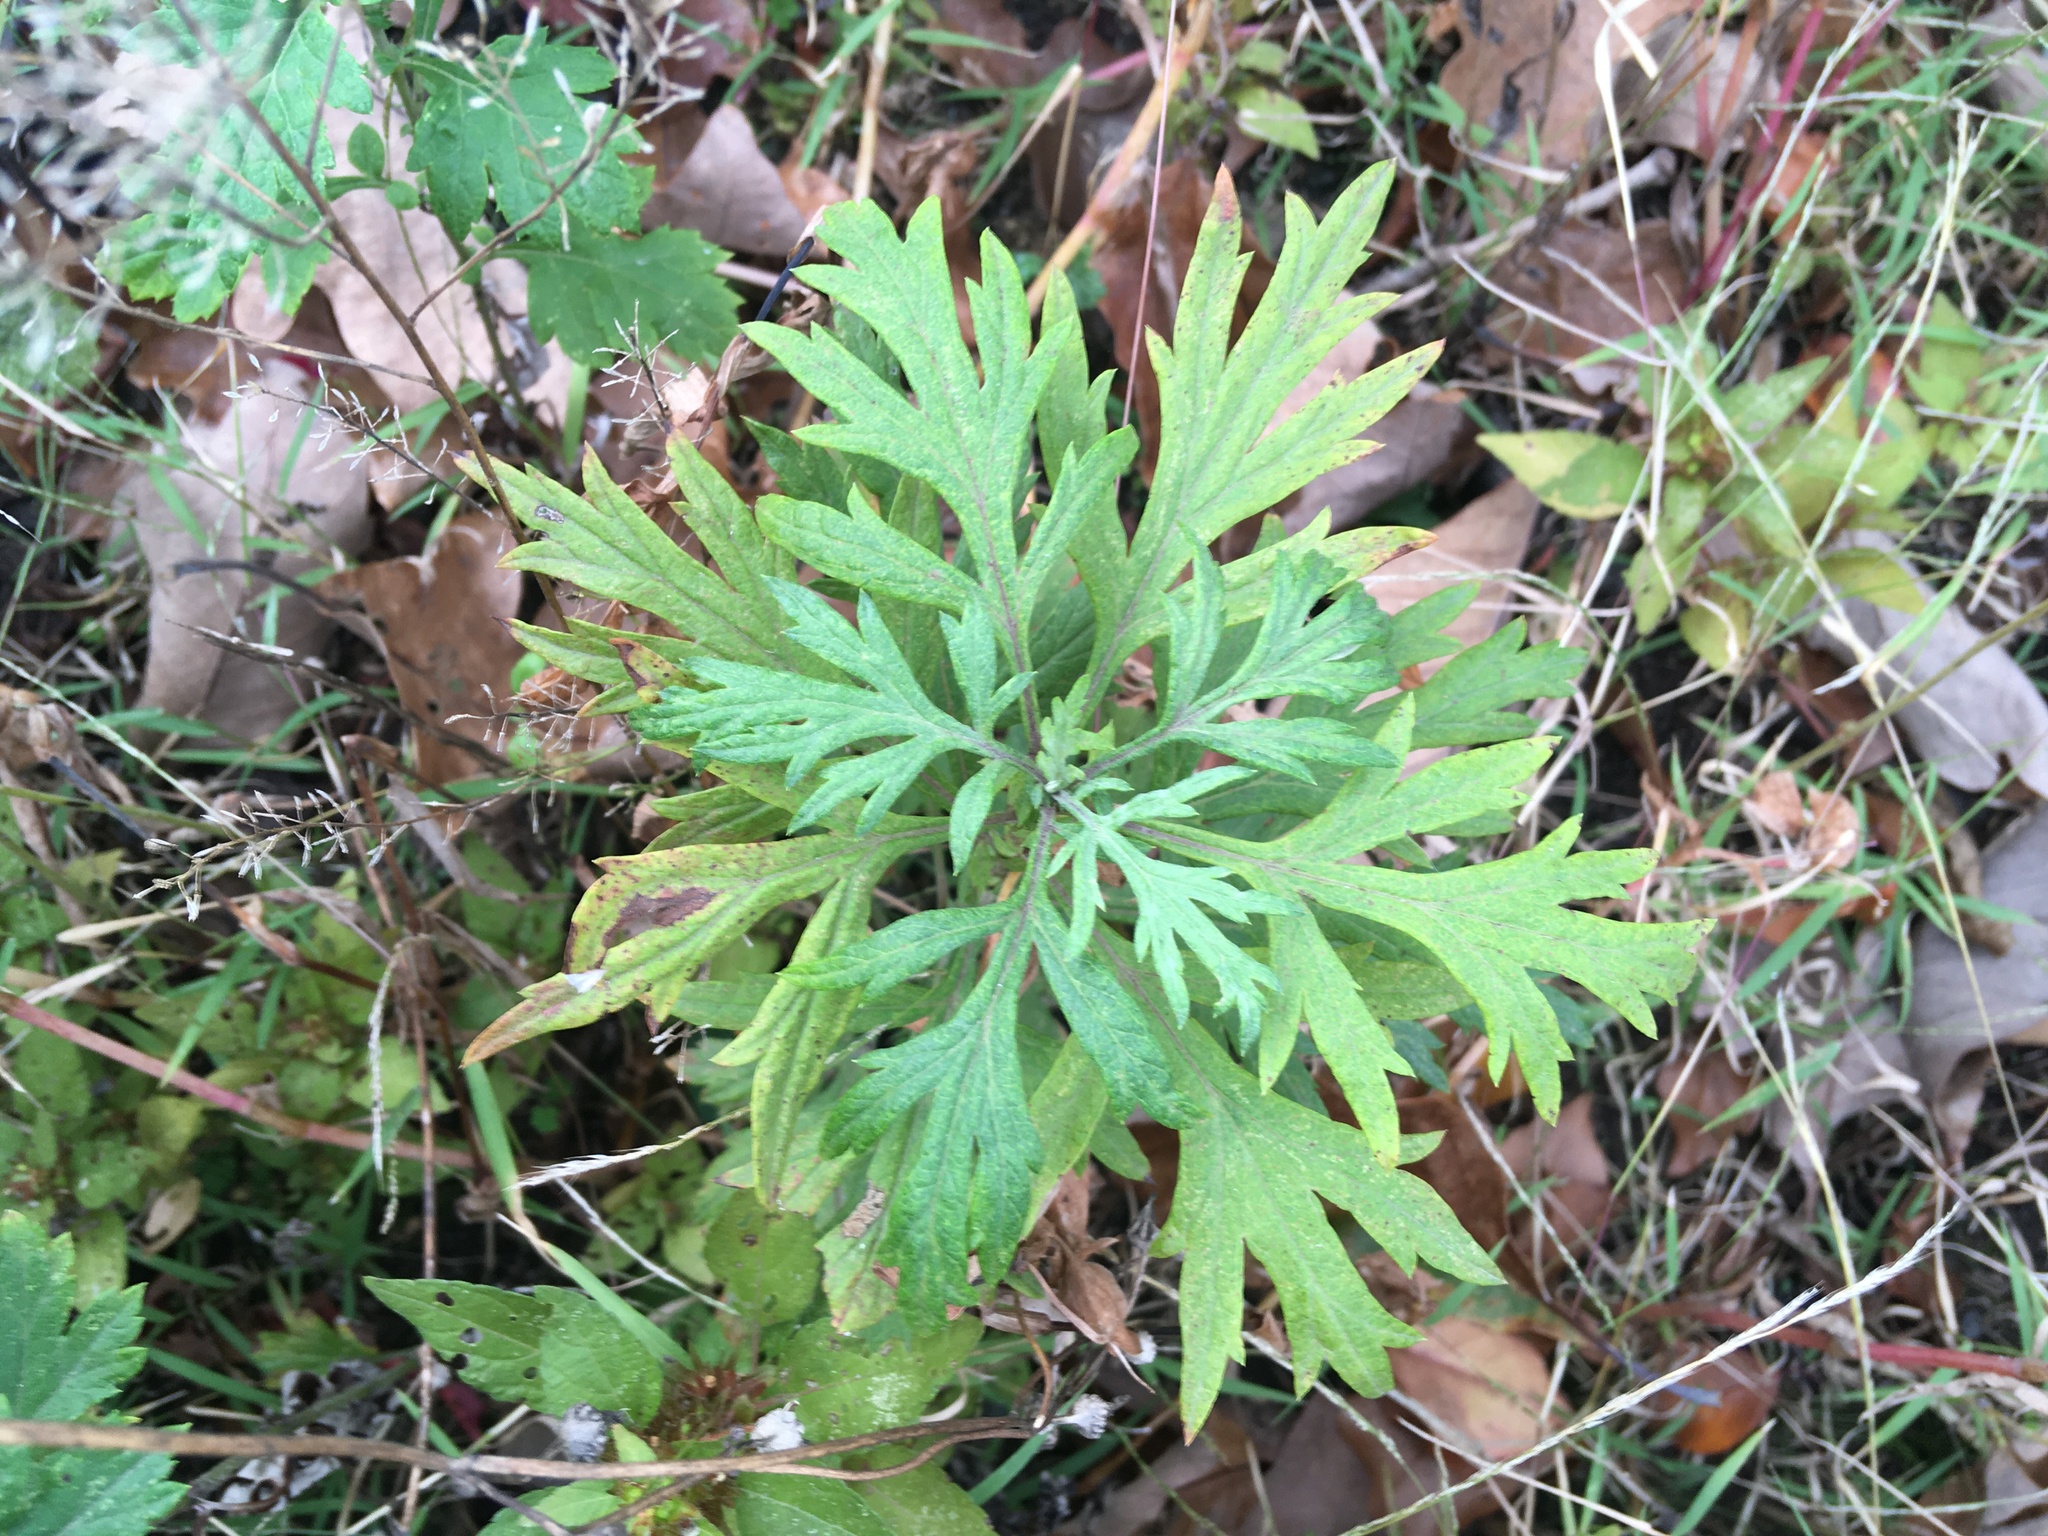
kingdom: Plantae
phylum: Tracheophyta
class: Magnoliopsida
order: Asterales
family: Asteraceae
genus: Artemisia
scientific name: Artemisia vulgaris
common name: Mugwort
